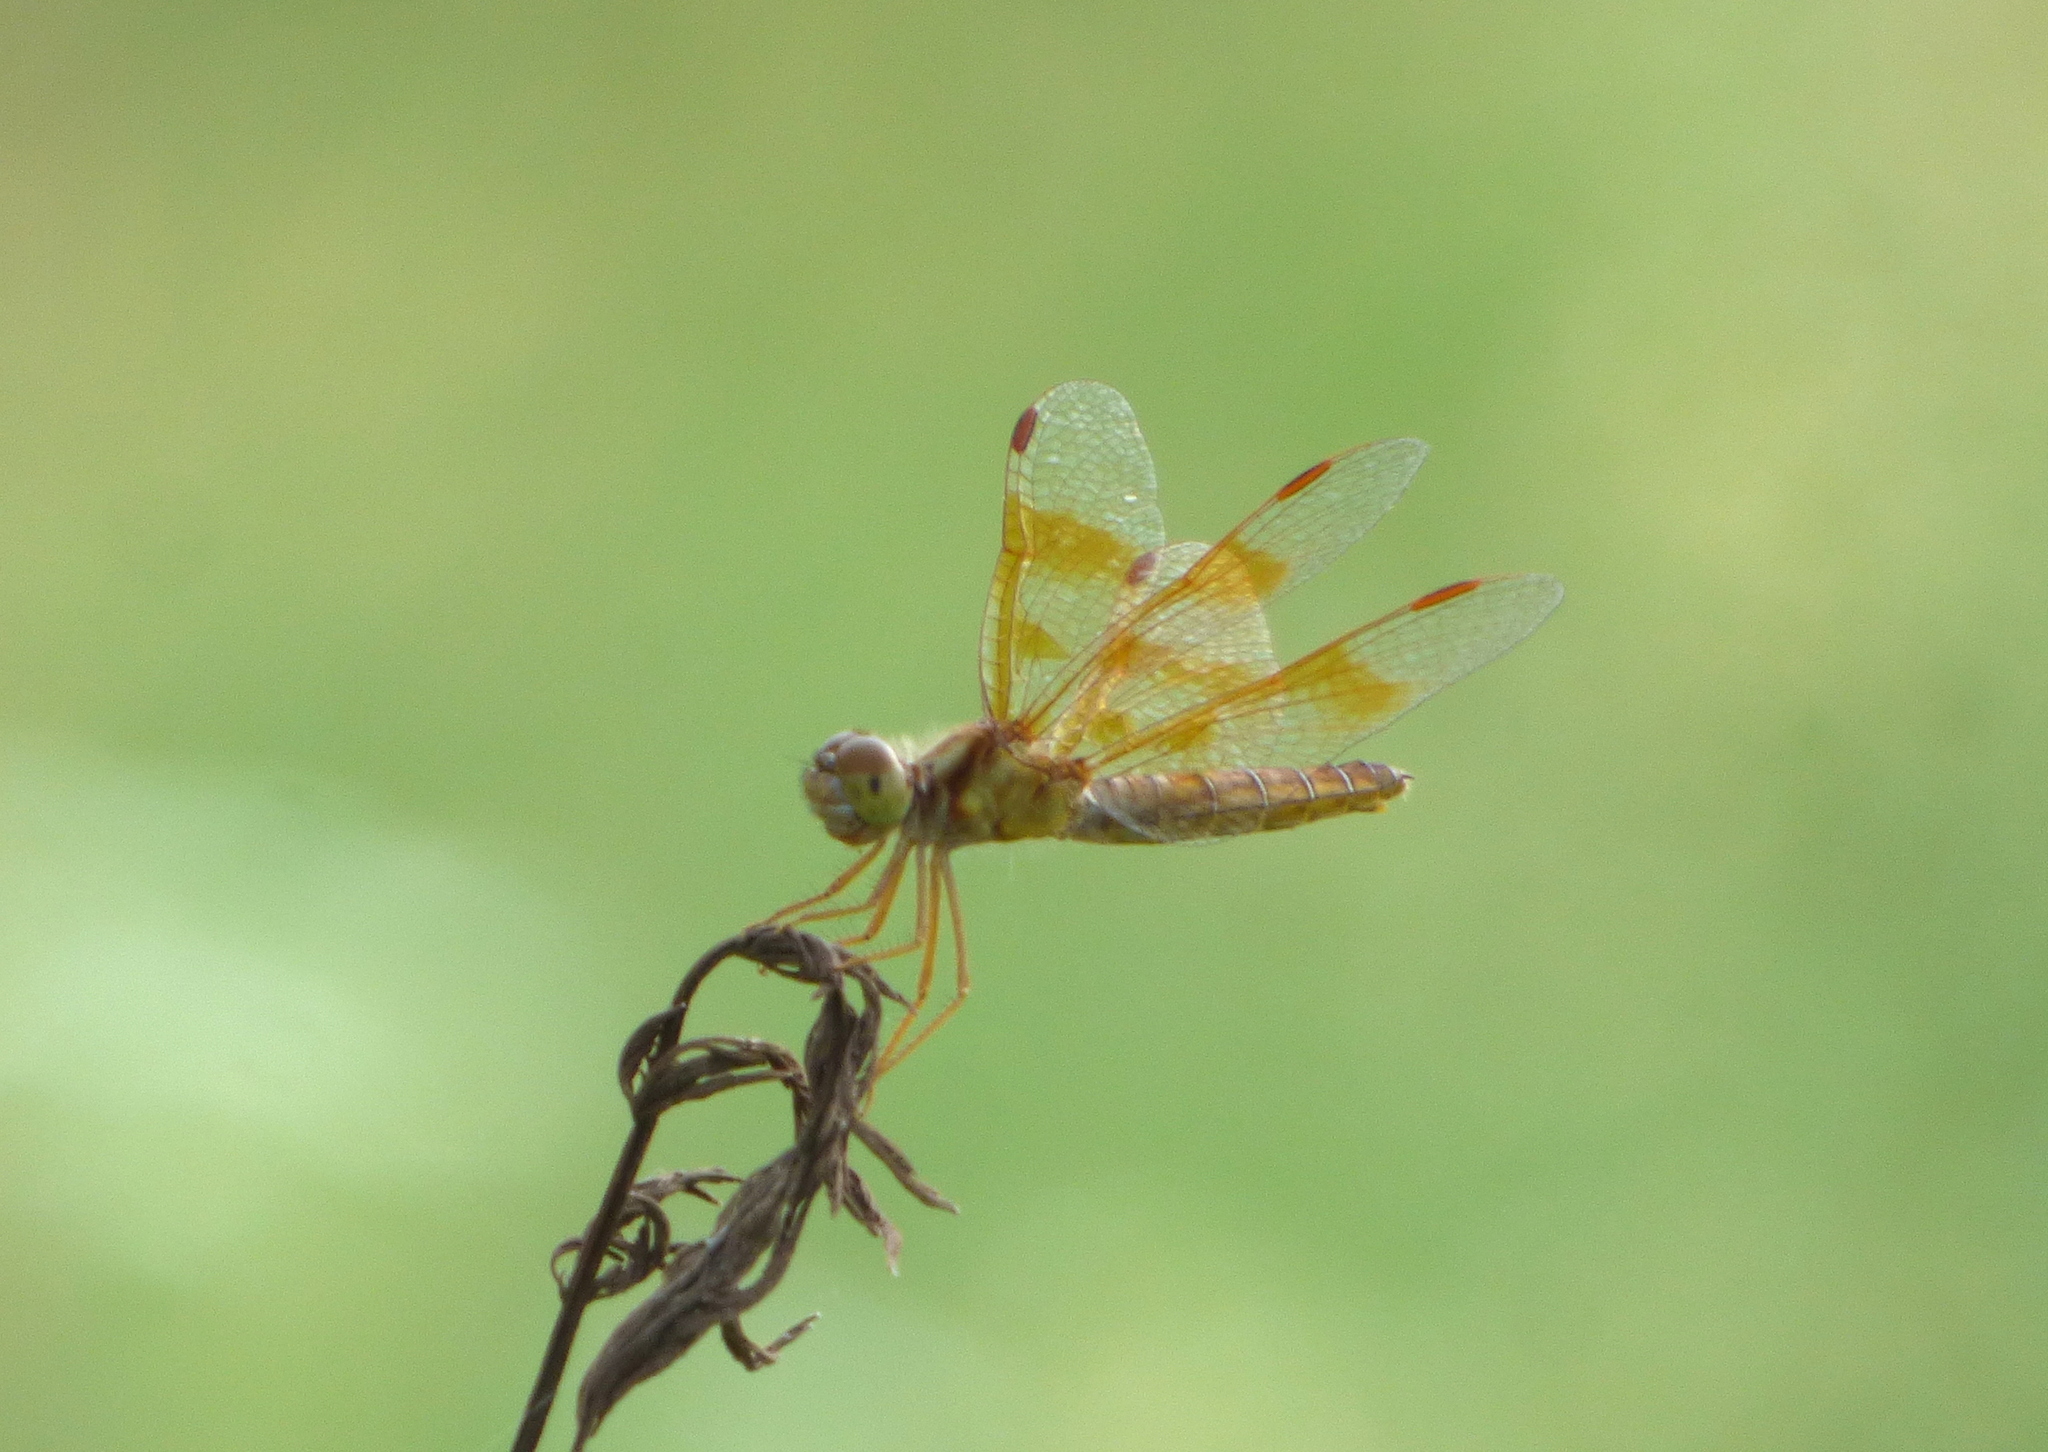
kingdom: Animalia
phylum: Arthropoda
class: Insecta
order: Odonata
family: Libellulidae
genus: Perithemis
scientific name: Perithemis tenera
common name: Eastern amberwing
